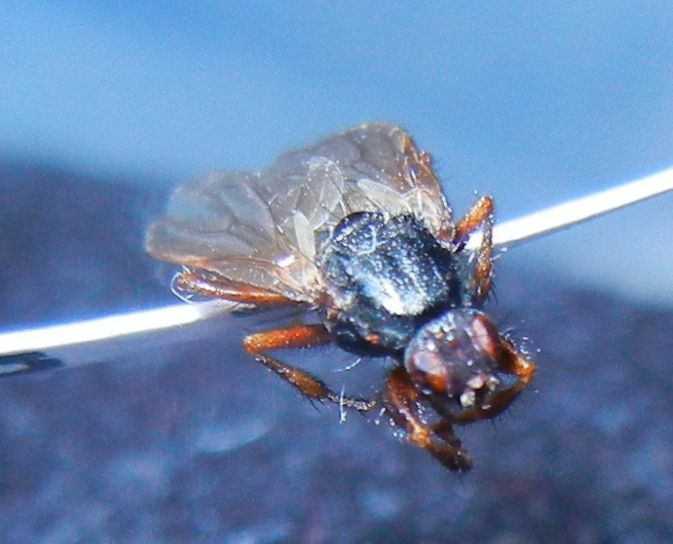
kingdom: Animalia
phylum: Arthropoda
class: Insecta
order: Diptera
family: Coelopidae
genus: Coelopa
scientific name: Coelopa frigida
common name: Kelp fly
